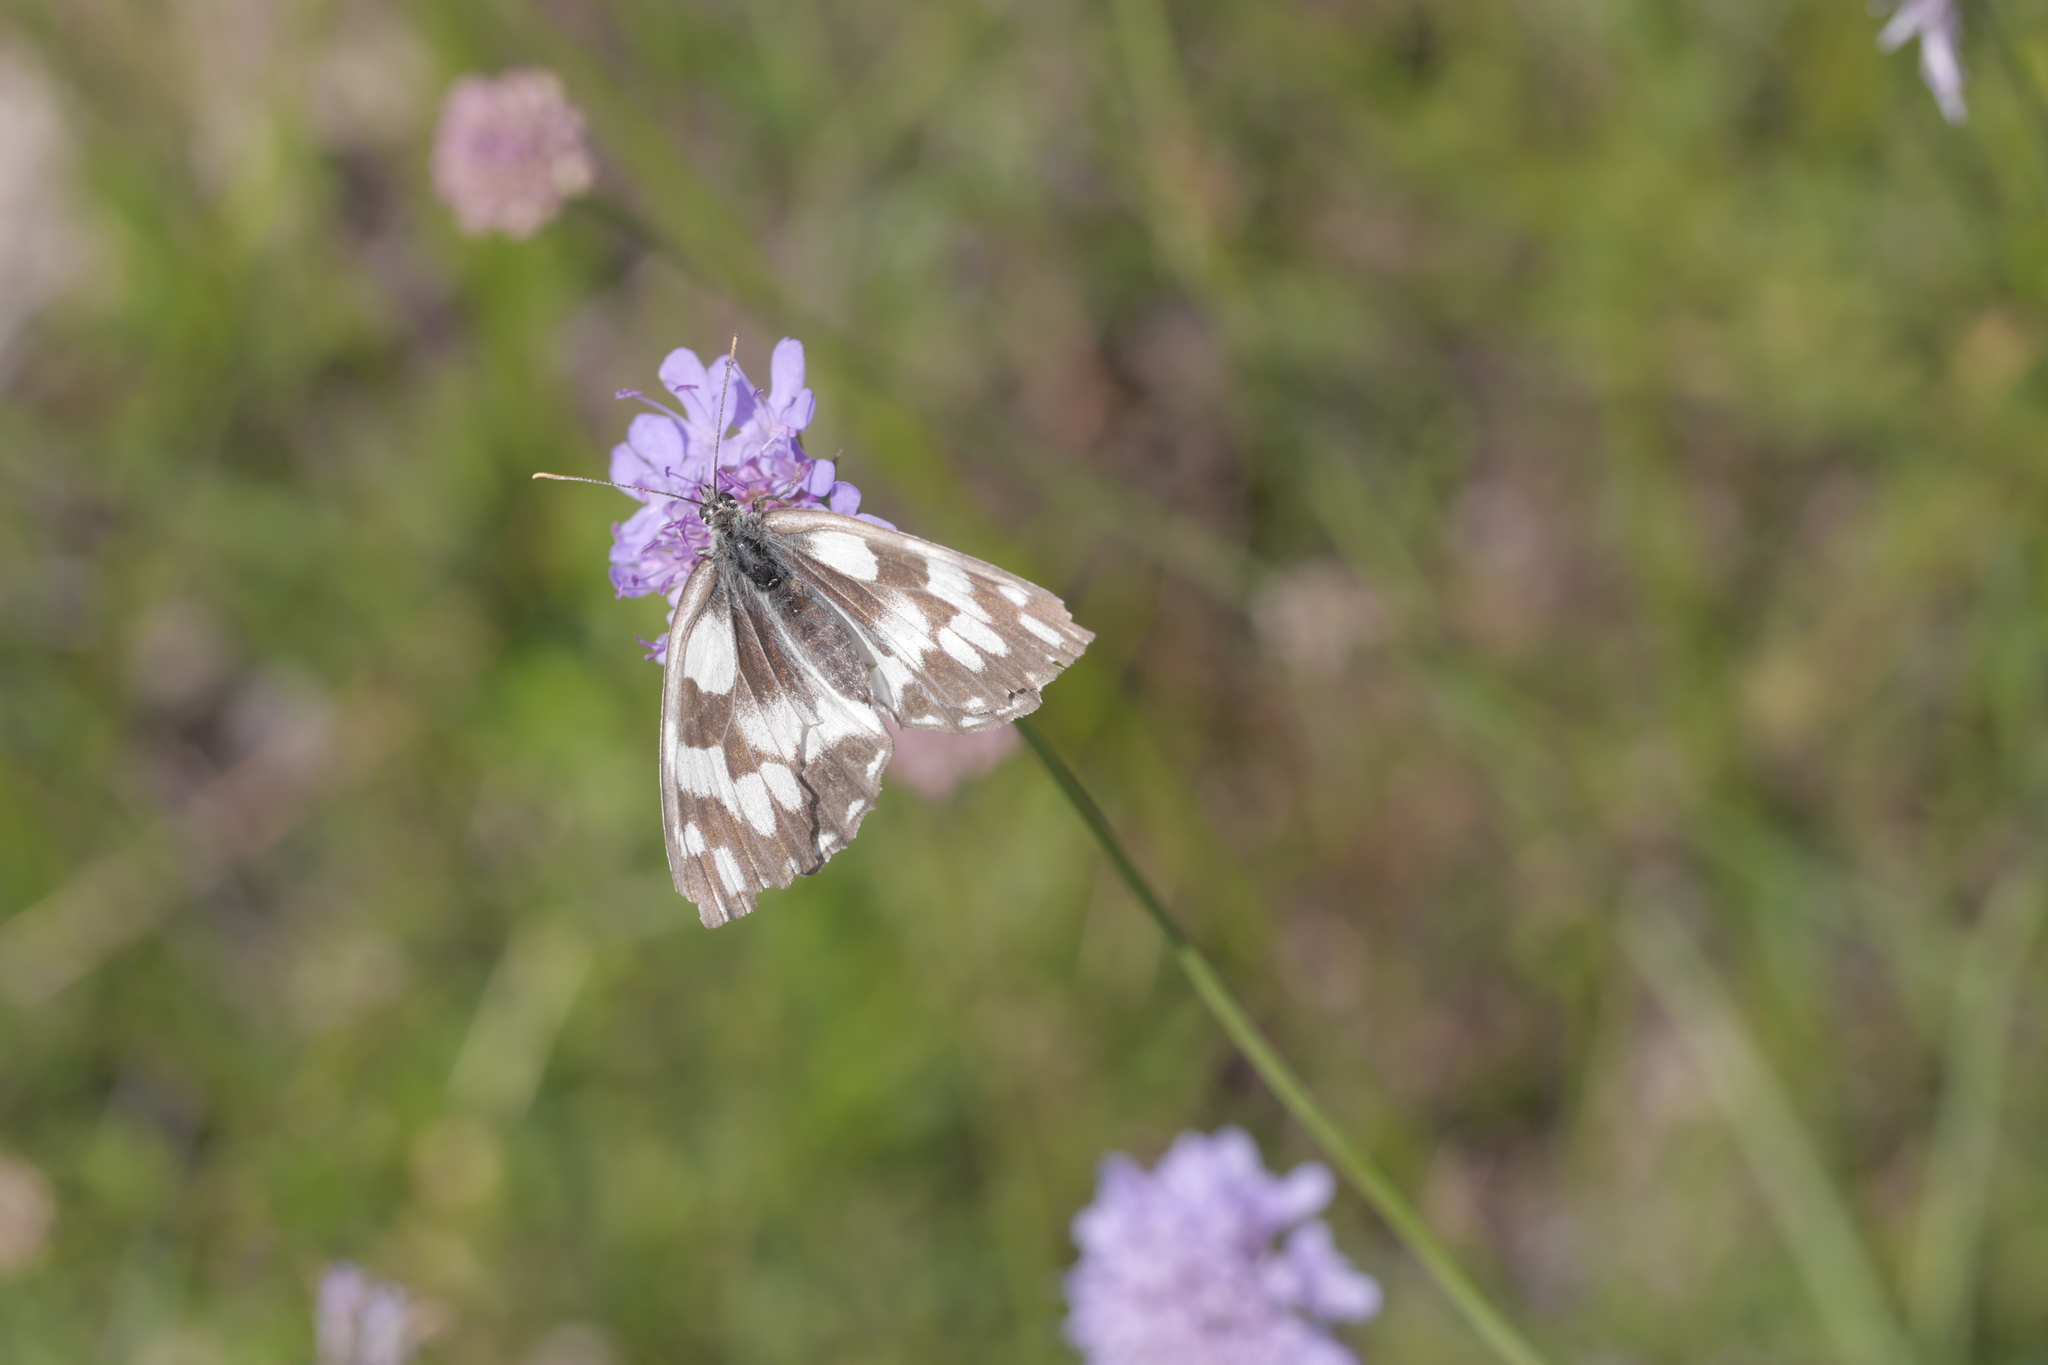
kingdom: Animalia
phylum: Arthropoda
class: Insecta
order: Lepidoptera
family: Nymphalidae
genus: Melanargia
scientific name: Melanargia galathea
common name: Marbled white
